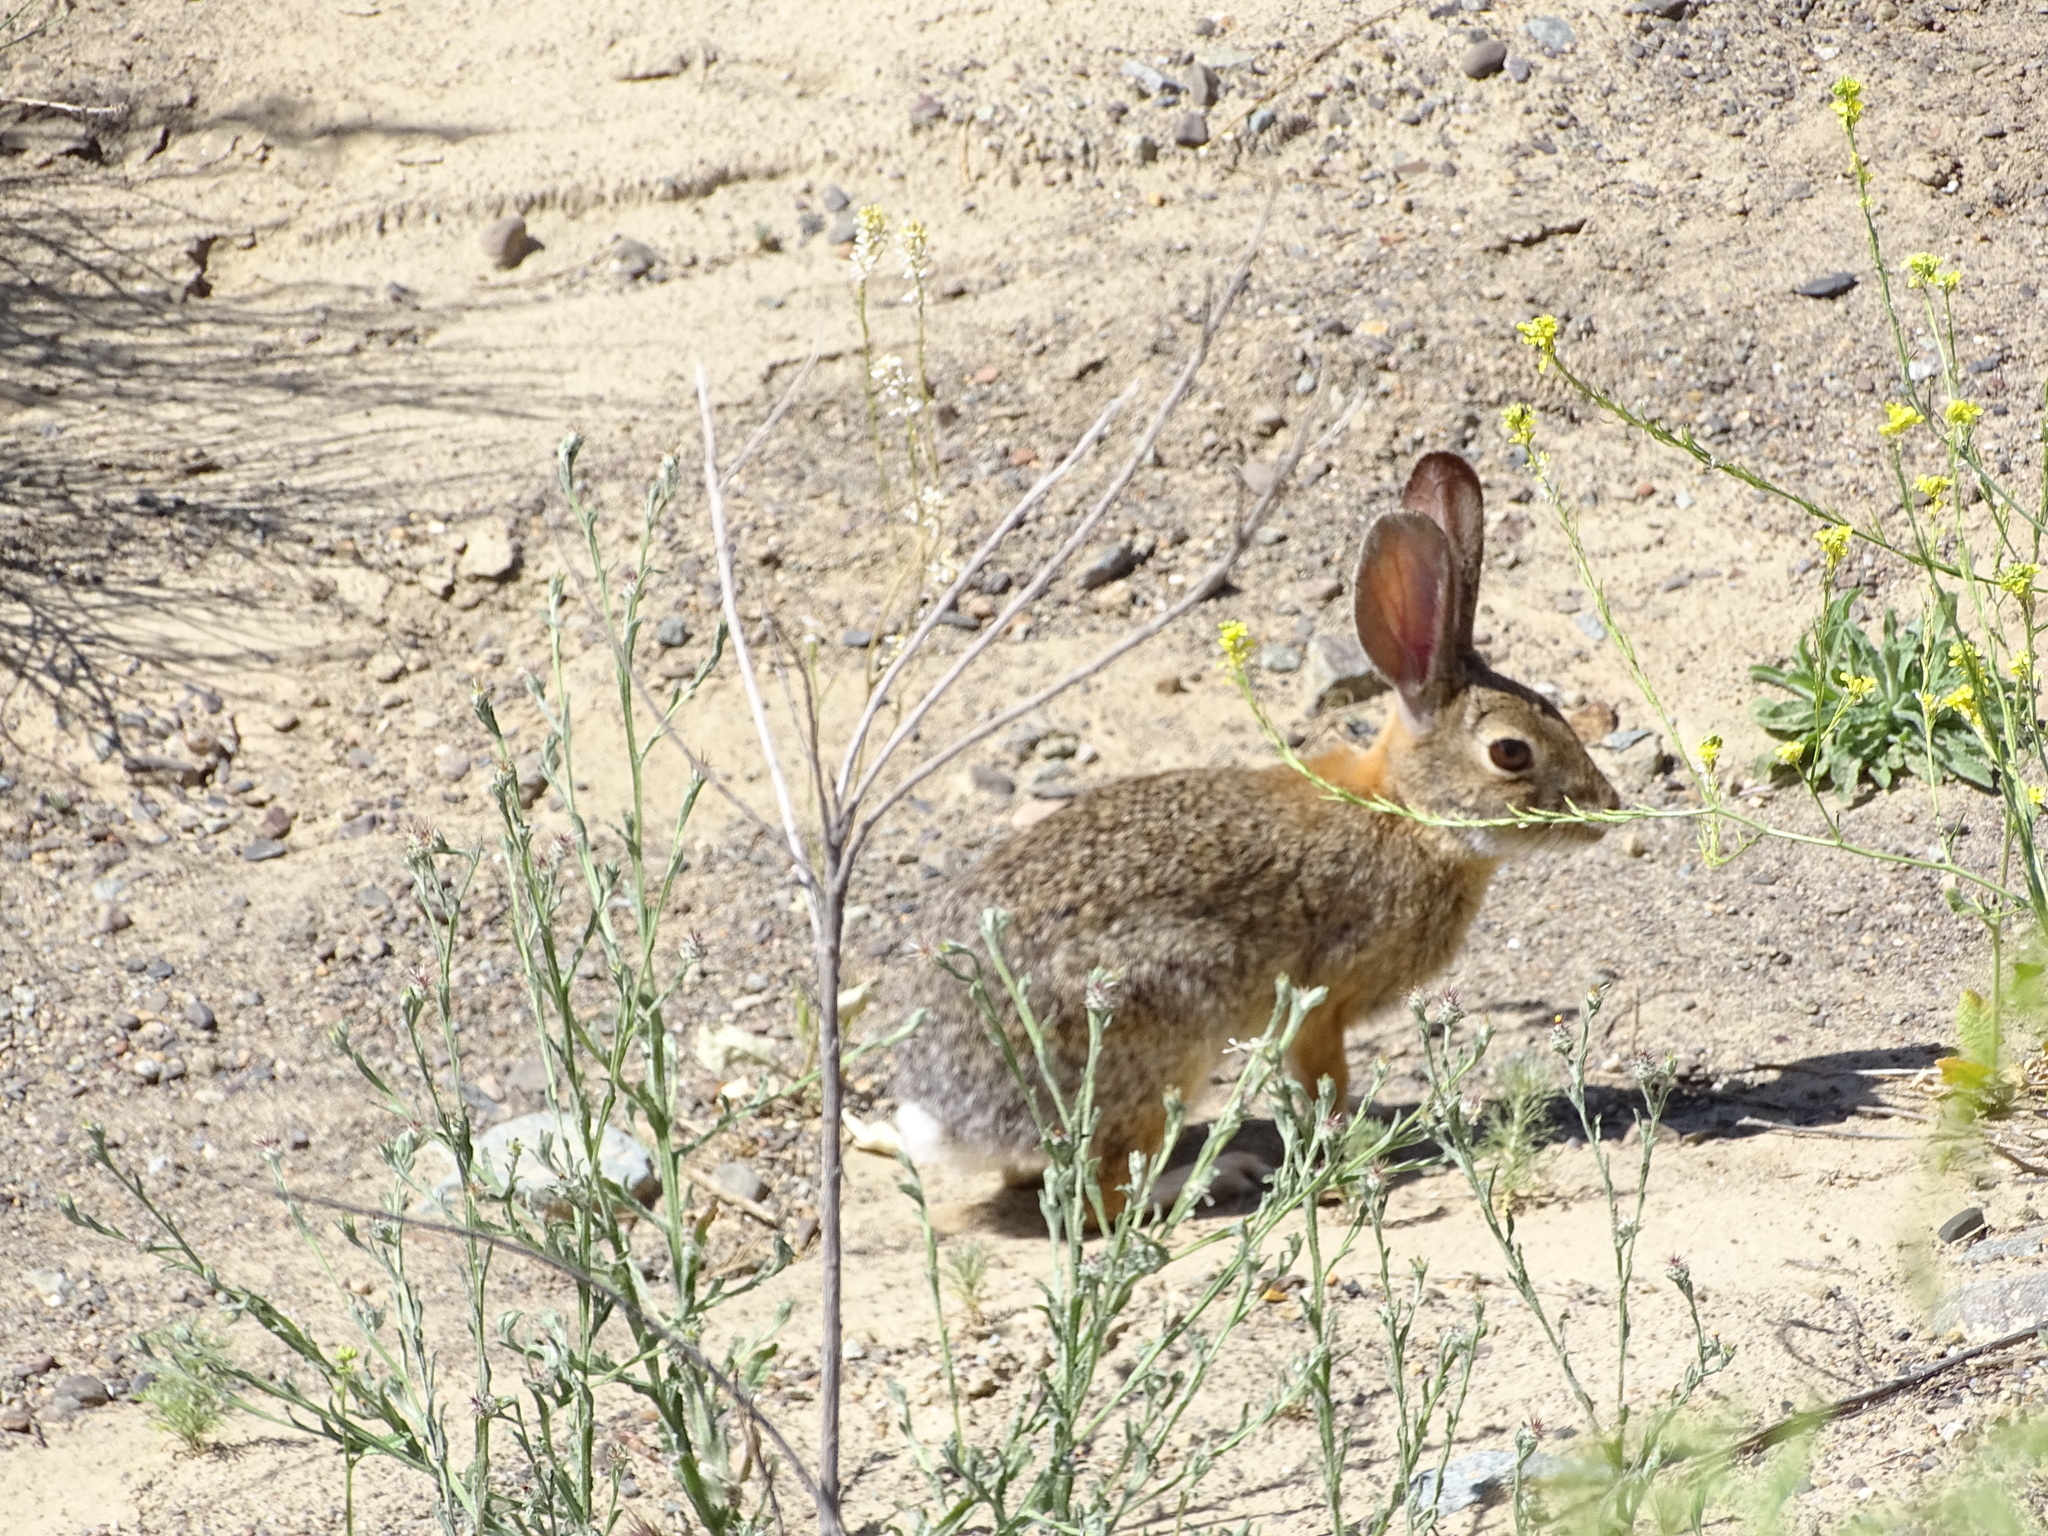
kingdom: Animalia
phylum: Chordata
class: Mammalia
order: Lagomorpha
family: Leporidae
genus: Sylvilagus
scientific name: Sylvilagus audubonii
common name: Desert cottontail
